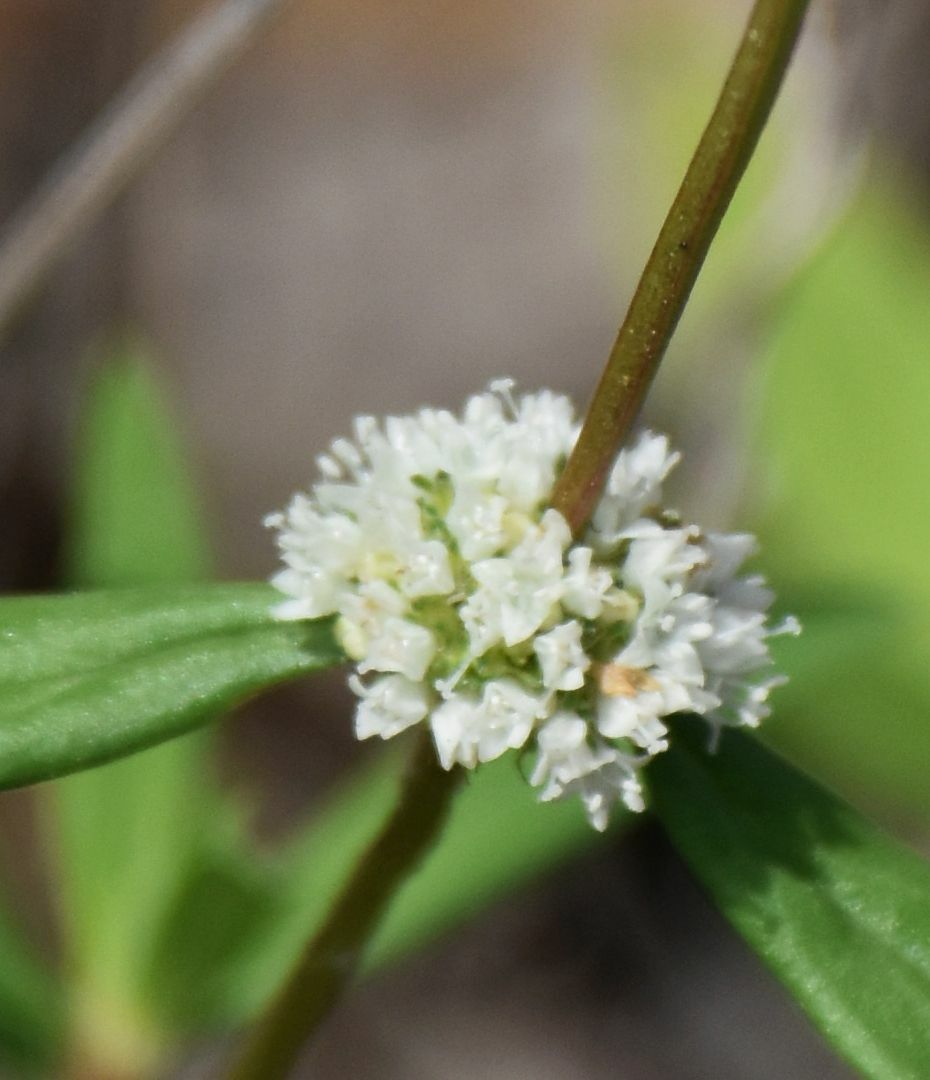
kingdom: Plantae
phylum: Tracheophyta
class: Magnoliopsida
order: Gentianales
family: Rubiaceae
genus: Spermacoce
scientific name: Spermacoce verticillata
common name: Shrubby false buttonweed
